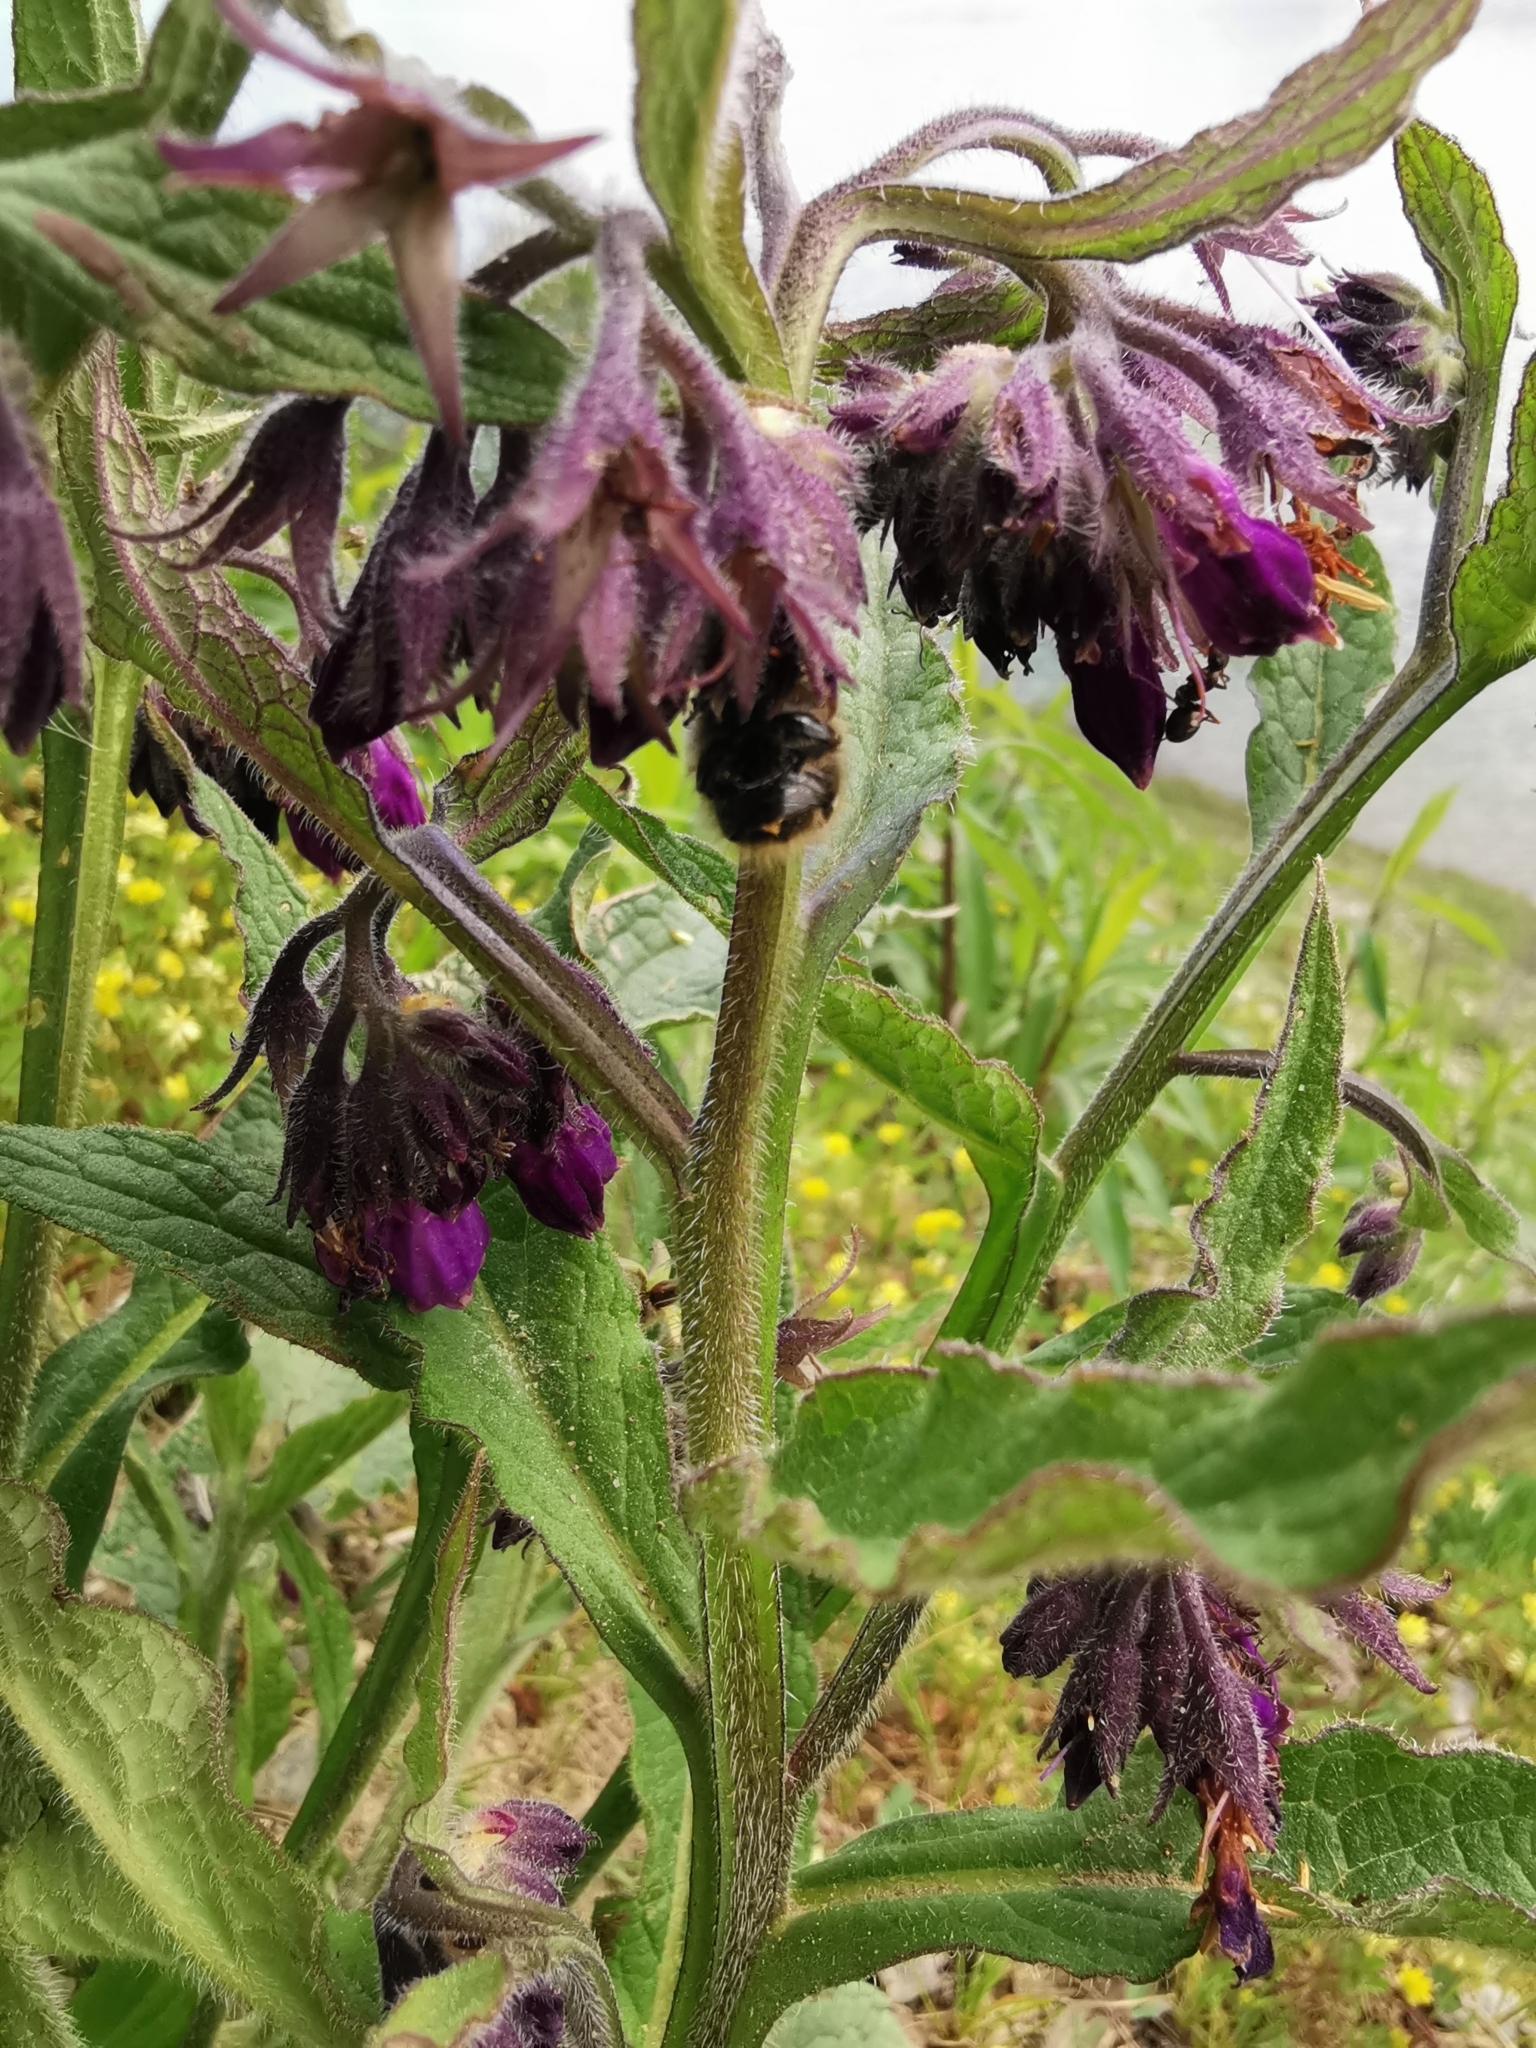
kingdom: Plantae
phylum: Tracheophyta
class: Magnoliopsida
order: Boraginales
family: Boraginaceae
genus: Symphytum
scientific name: Symphytum officinale
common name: Common comfrey
